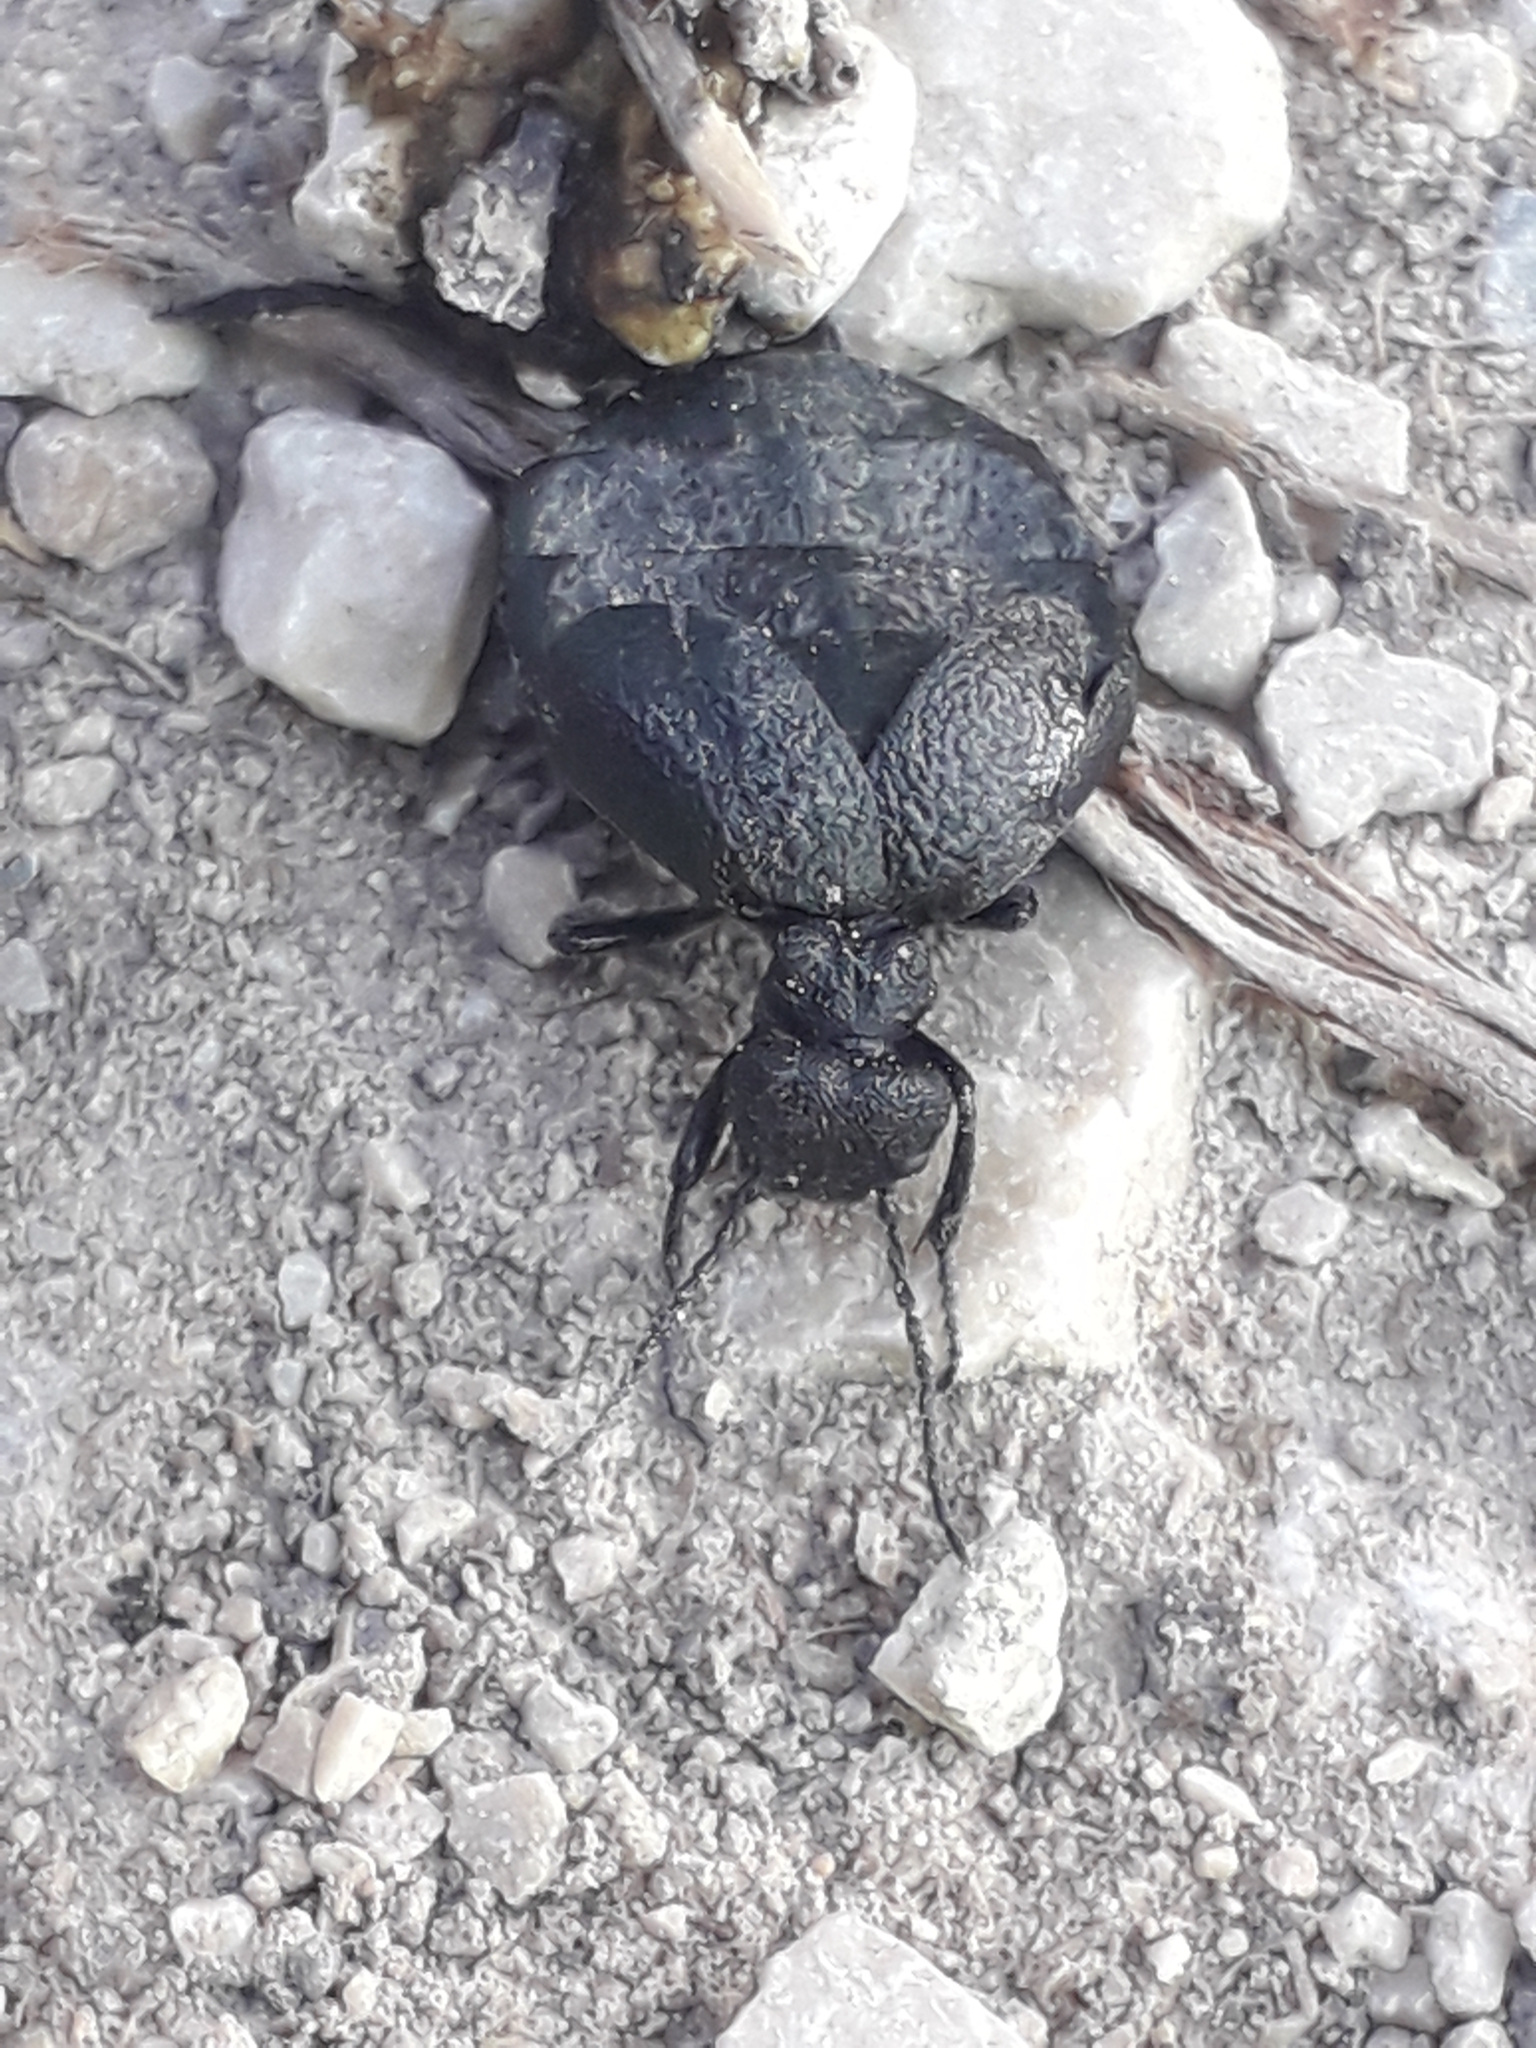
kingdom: Animalia
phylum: Arthropoda
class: Insecta
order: Coleoptera
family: Meloidae
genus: Meloe
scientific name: Meloe rugosus
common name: Rugged oil-beetle
